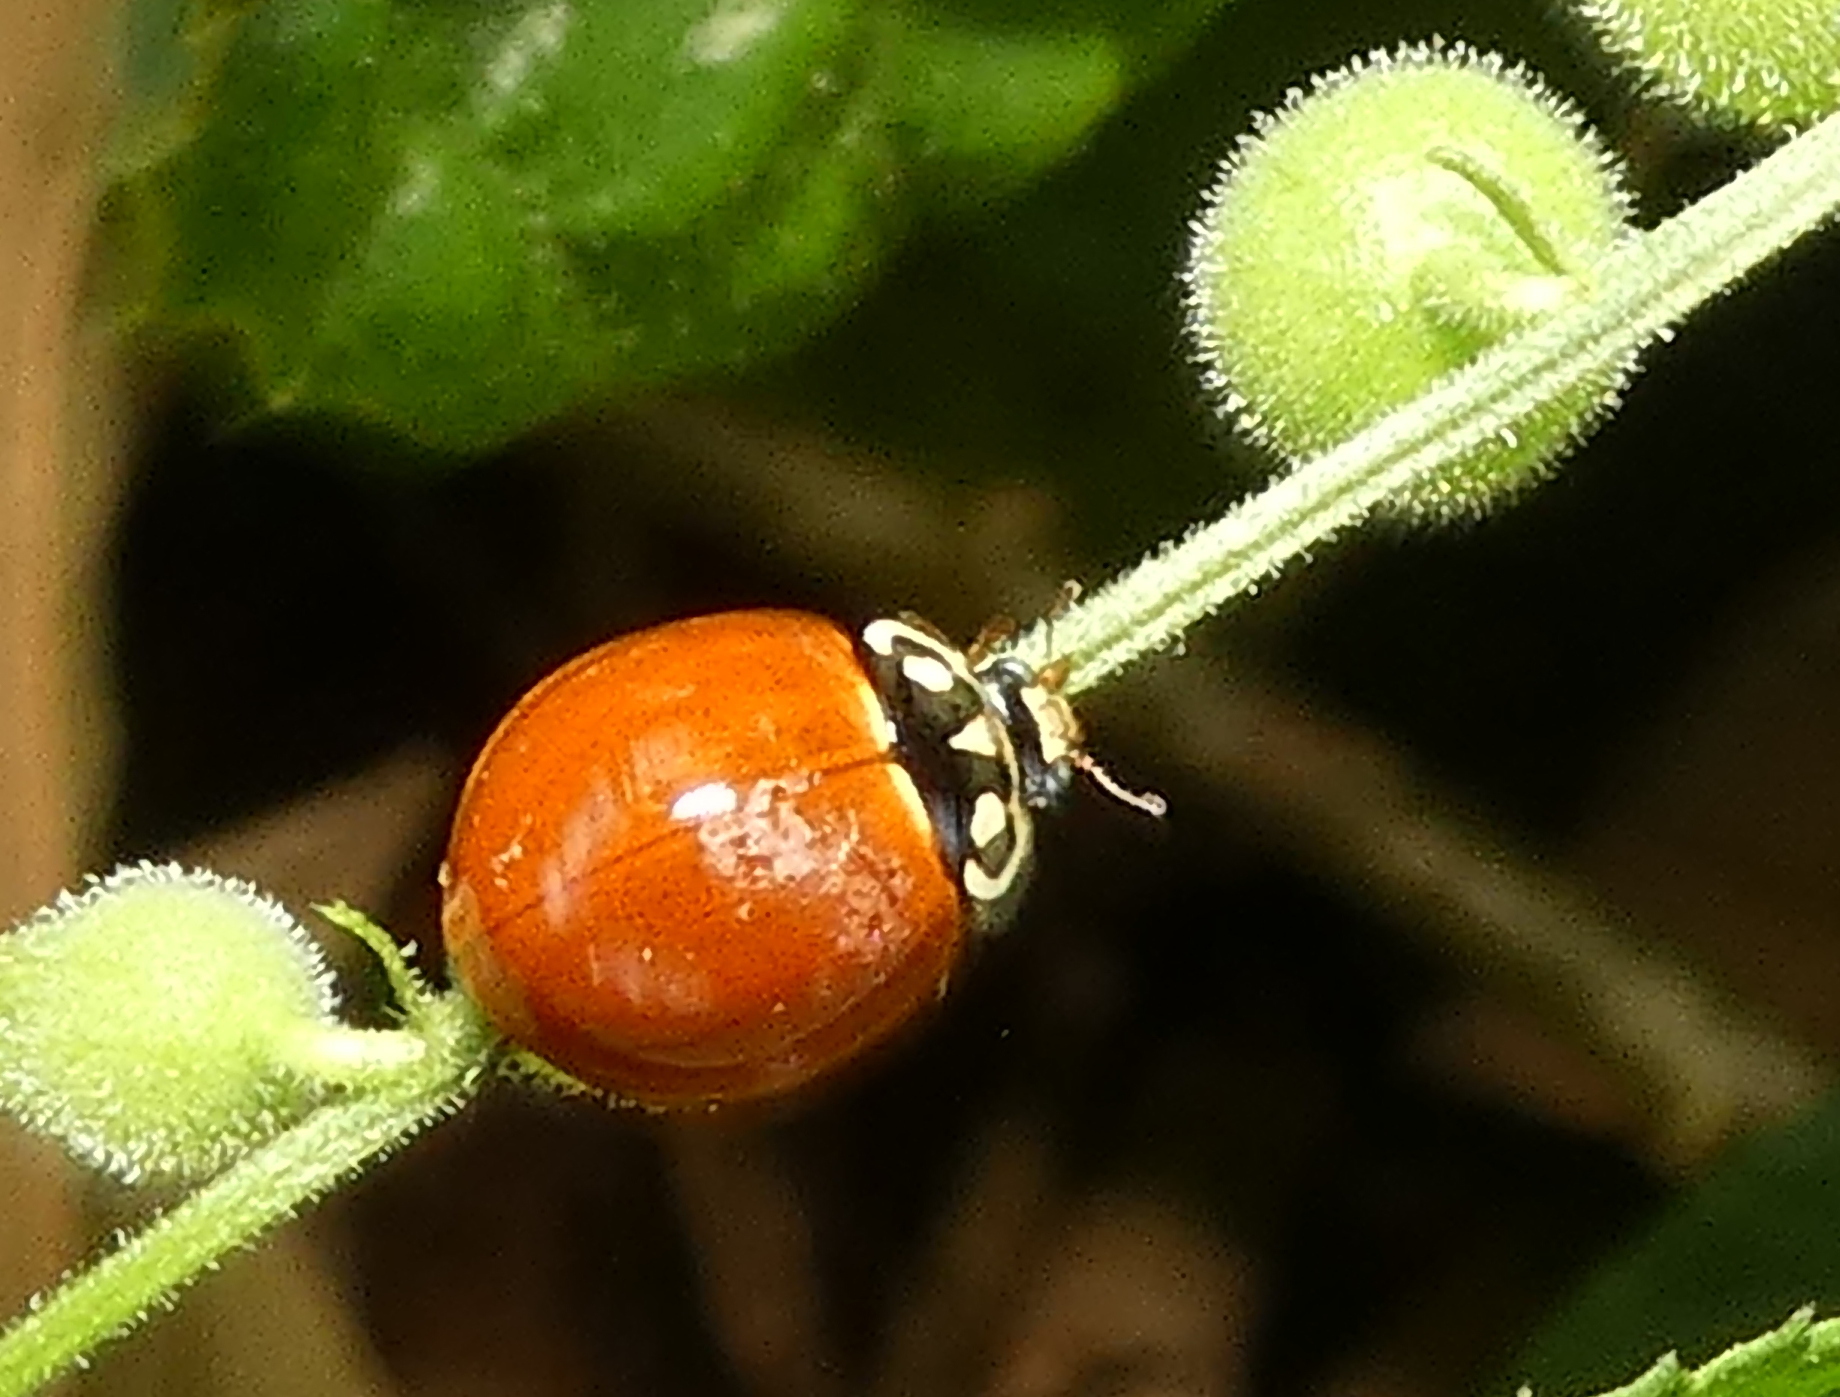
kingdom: Animalia
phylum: Arthropoda
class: Insecta
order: Coleoptera
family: Coccinellidae
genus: Cycloneda
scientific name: Cycloneda sanguinea
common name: Ladybird beetle
